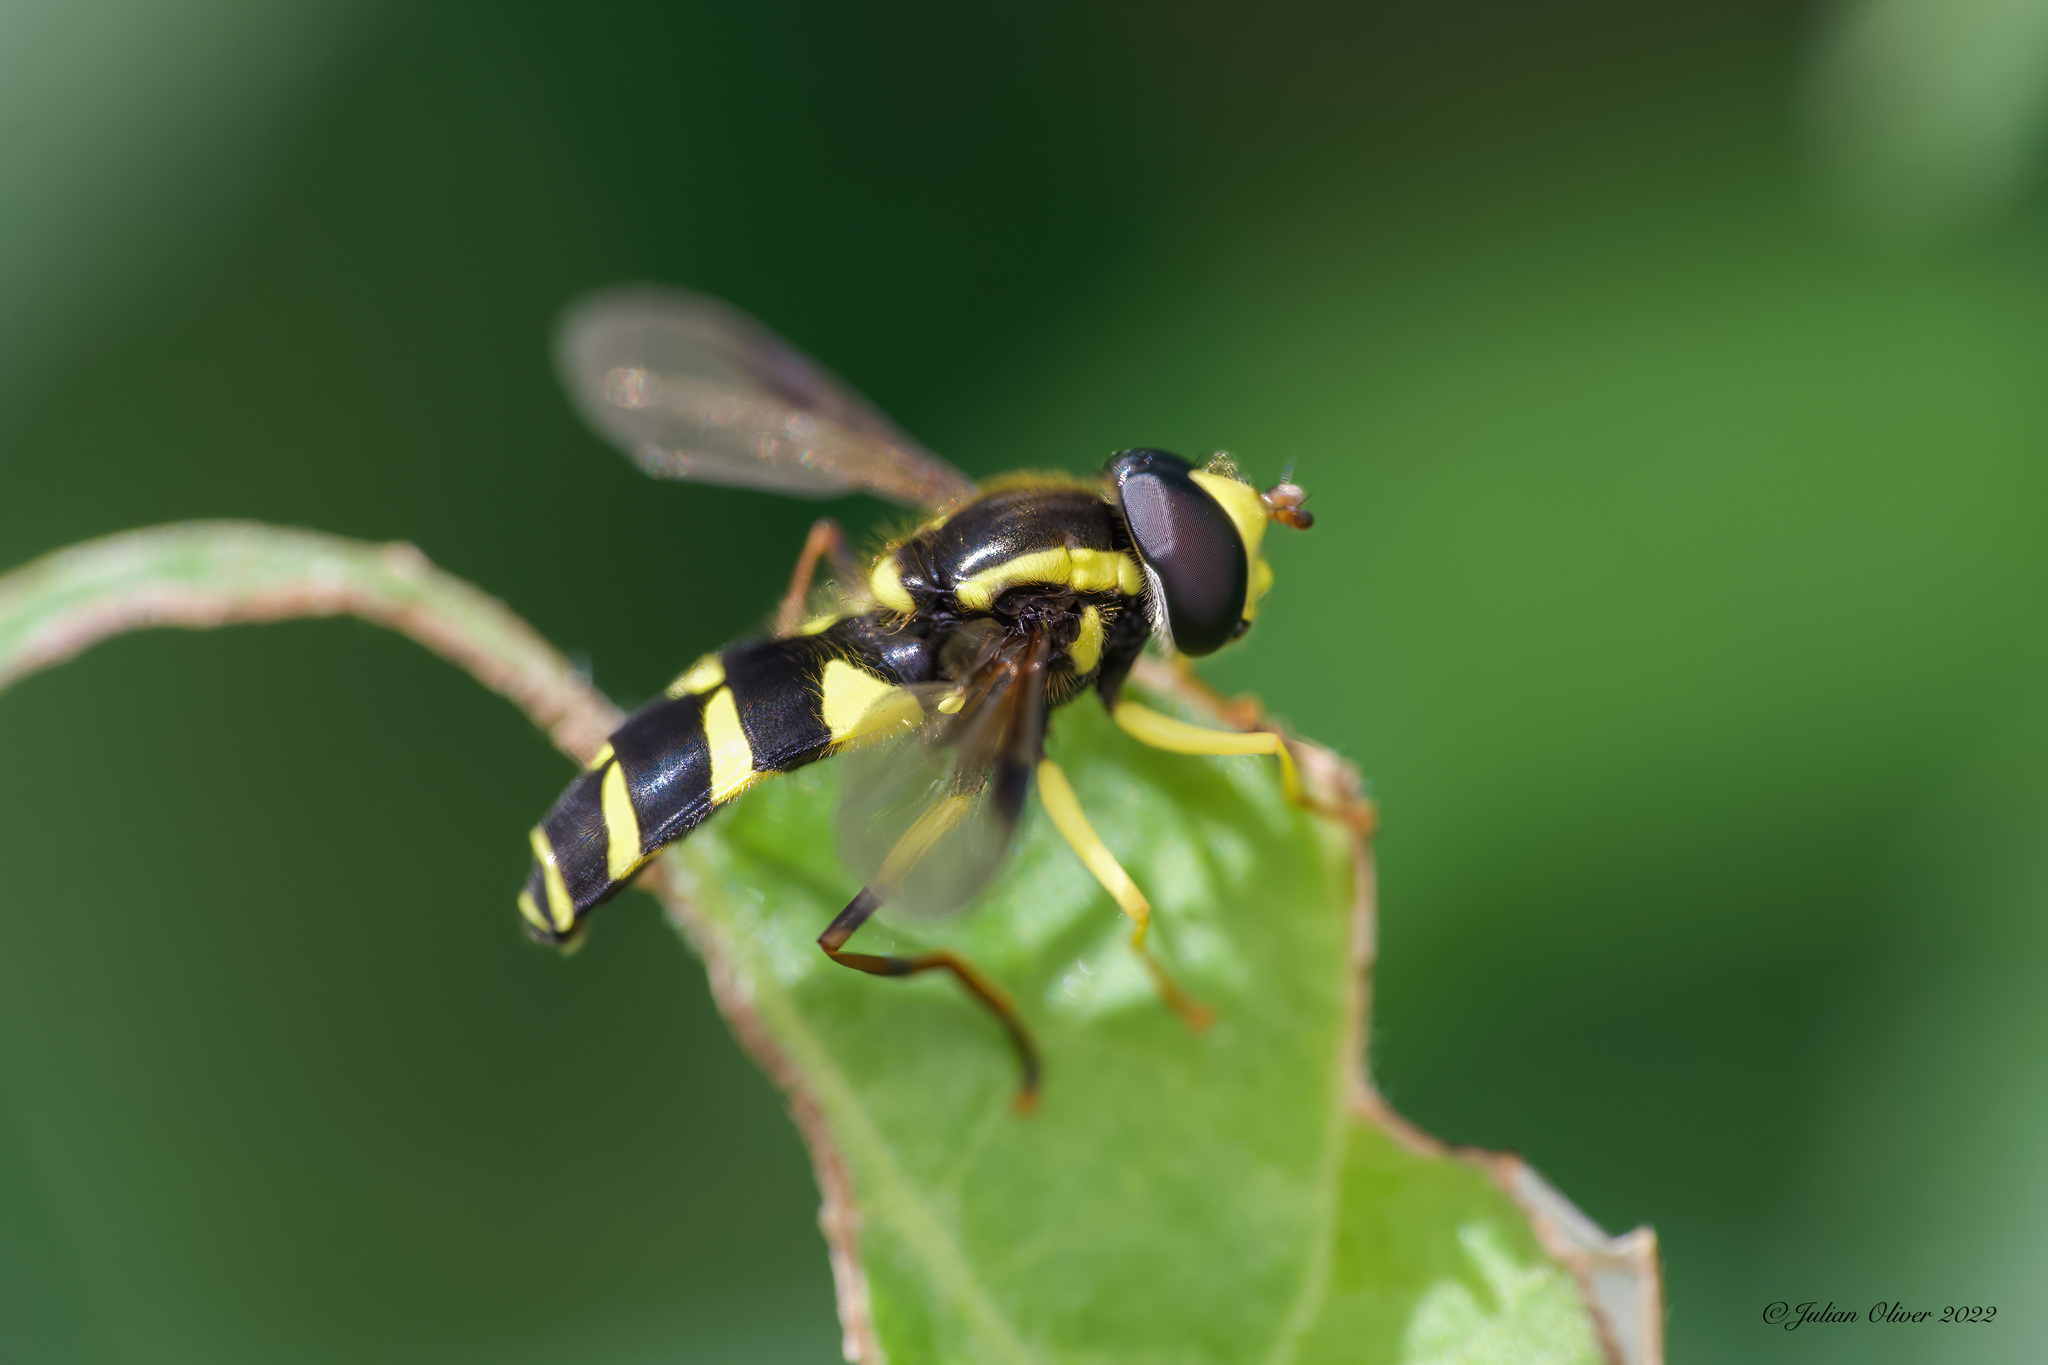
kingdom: Animalia
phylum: Arthropoda
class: Insecta
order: Diptera
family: Syrphidae
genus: Philhelius
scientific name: Philhelius pedissequum
